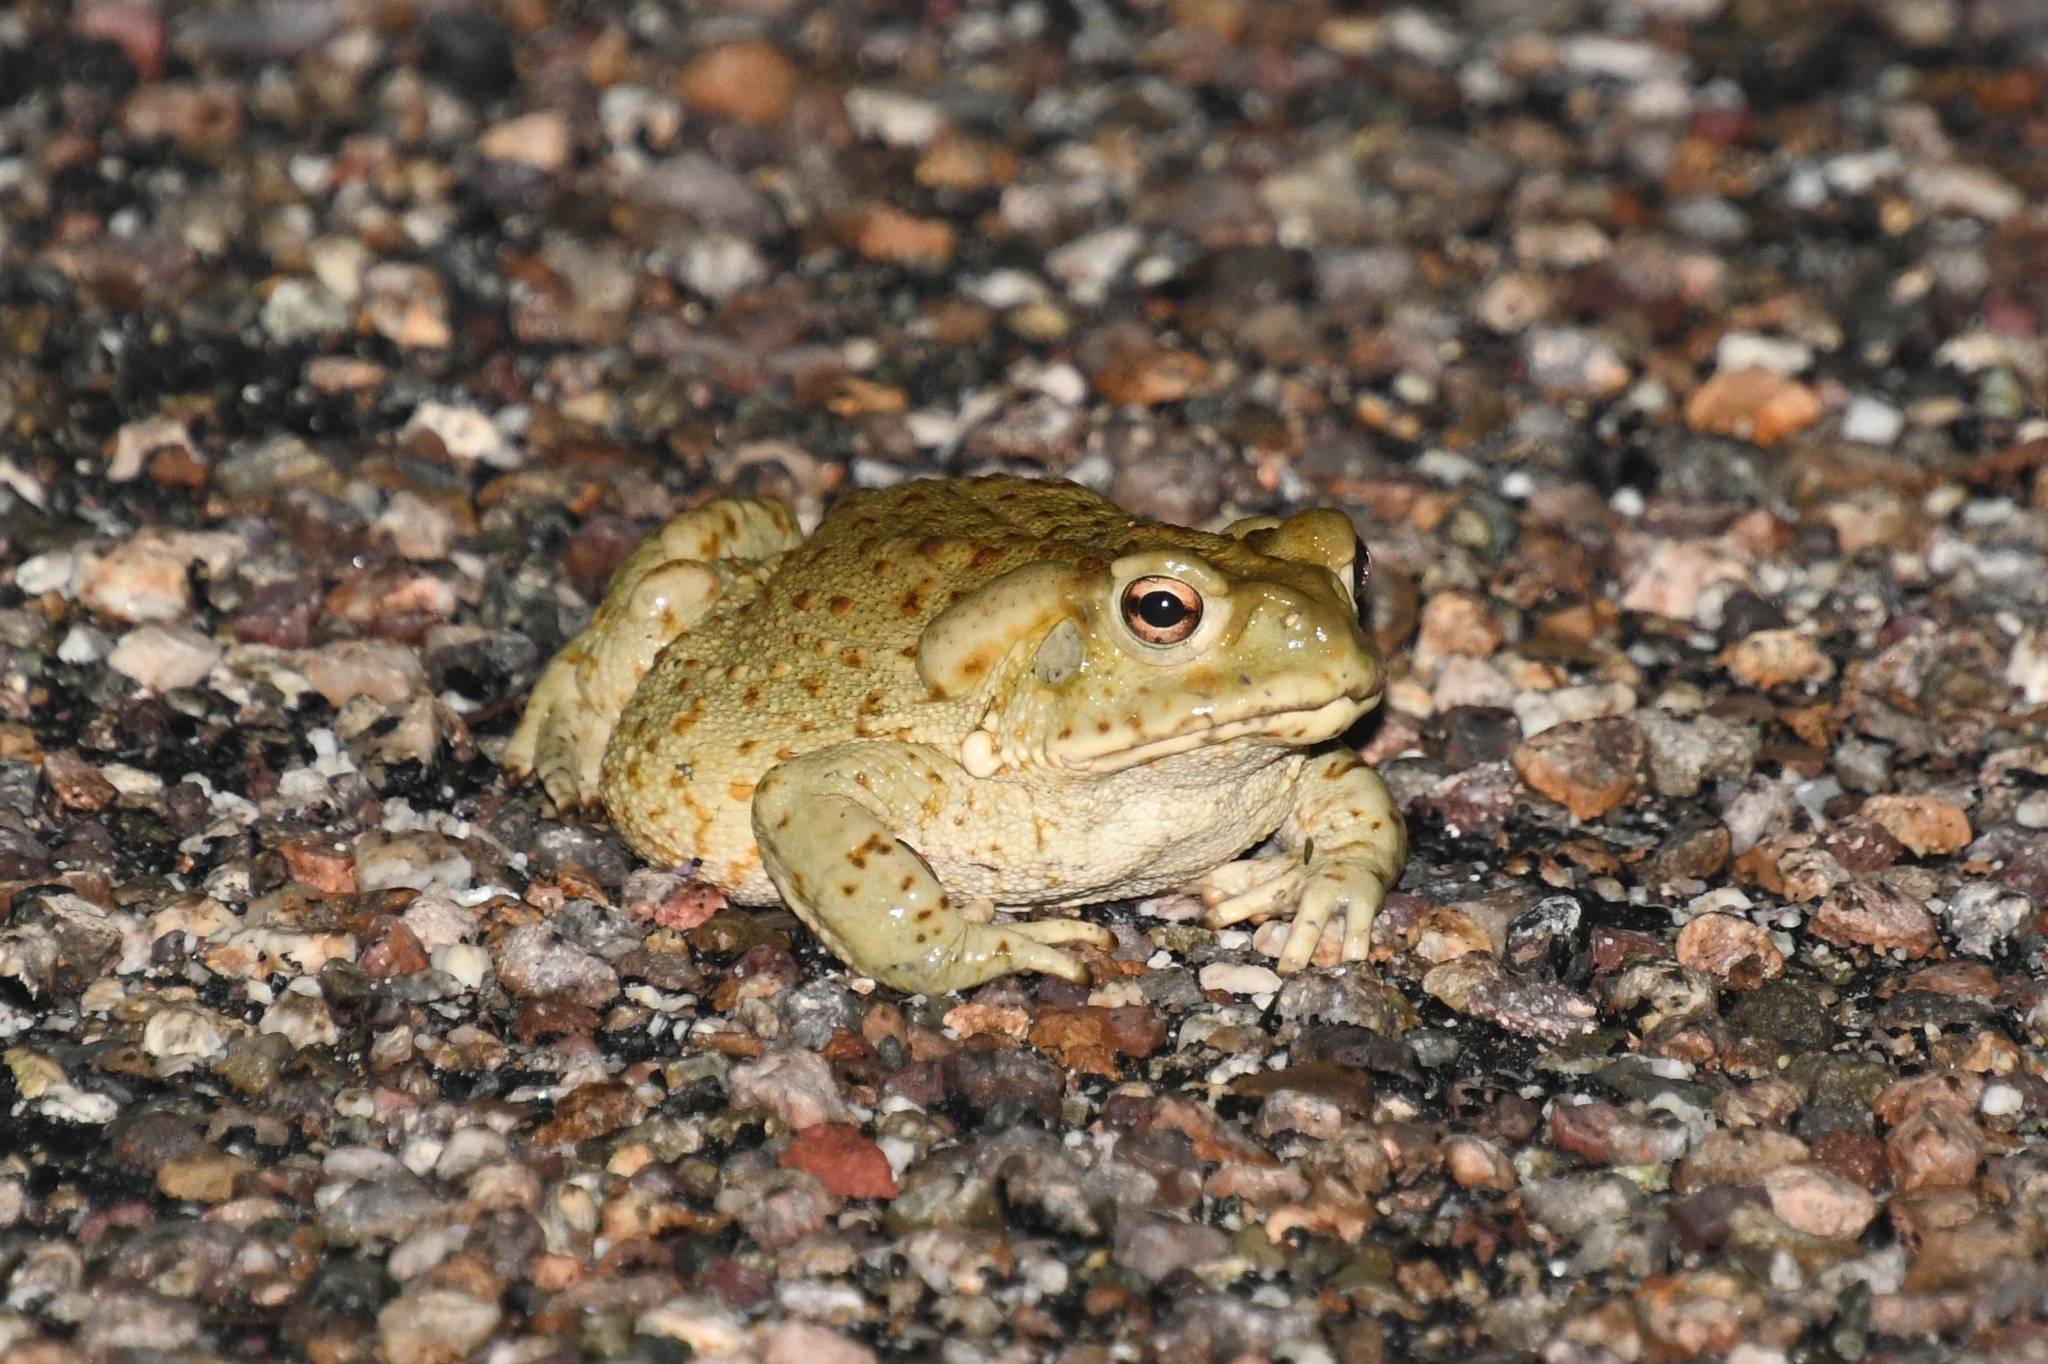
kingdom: Animalia
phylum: Chordata
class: Amphibia
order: Anura
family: Bufonidae
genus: Incilius
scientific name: Incilius alvarius
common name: Sonoran desert toad
